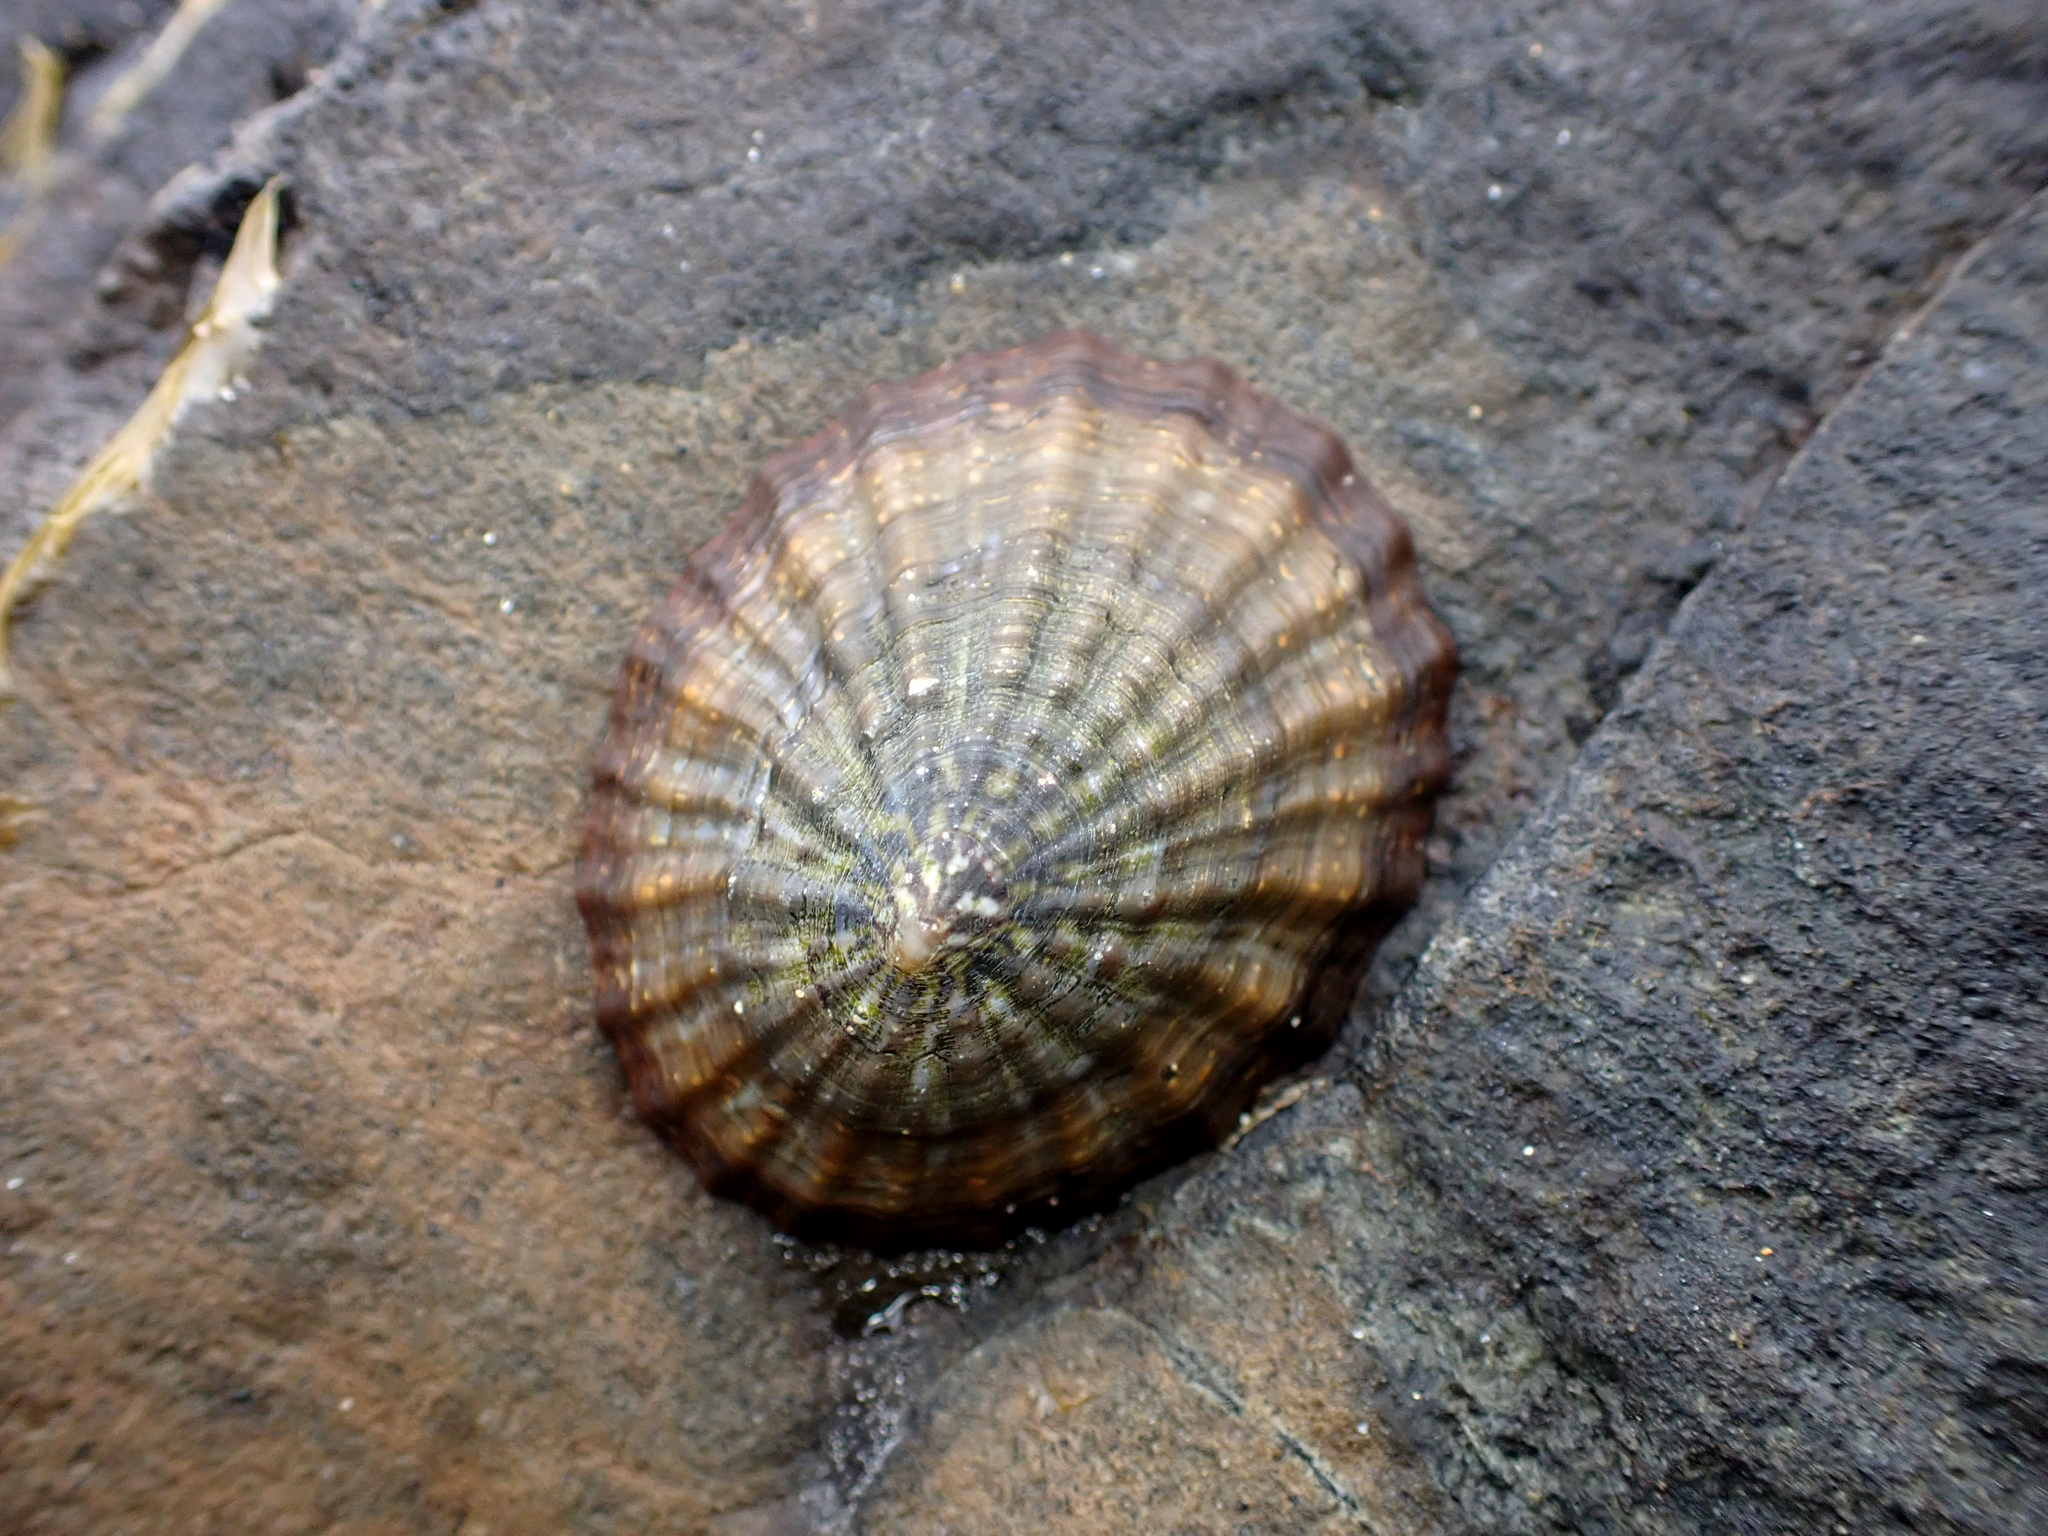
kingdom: Animalia
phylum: Mollusca
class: Gastropoda
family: Nacellidae
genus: Cellana
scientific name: Cellana strigilis
